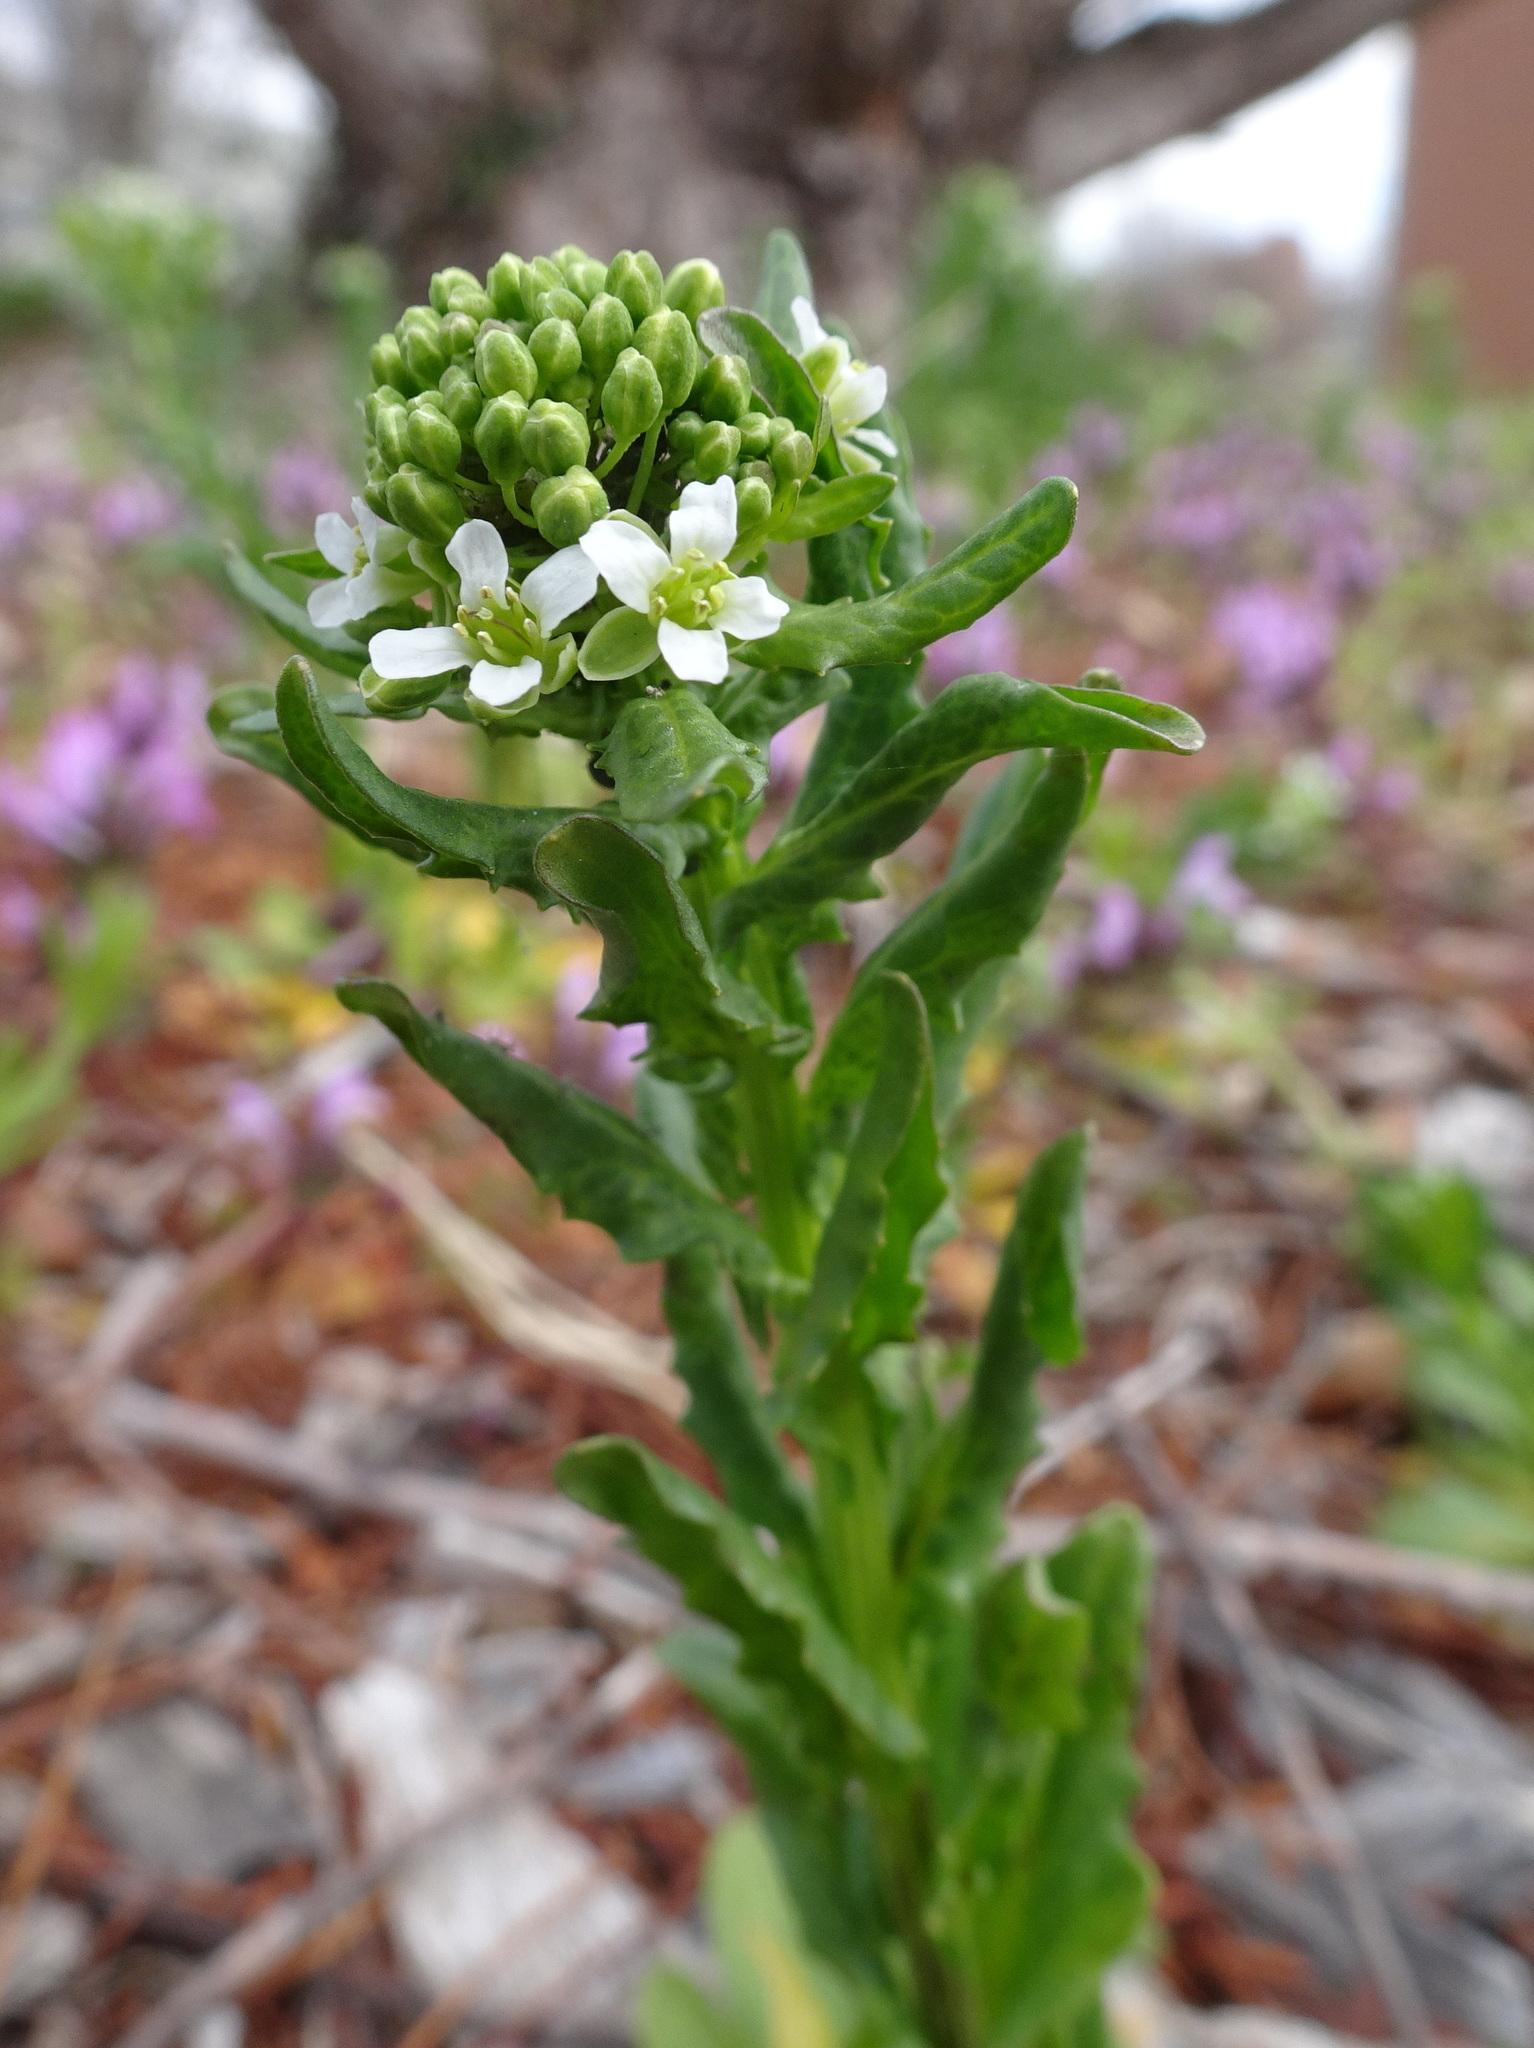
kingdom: Plantae
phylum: Tracheophyta
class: Magnoliopsida
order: Brassicales
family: Brassicaceae
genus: Thlaspi
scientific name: Thlaspi arvense
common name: Field pennycress
